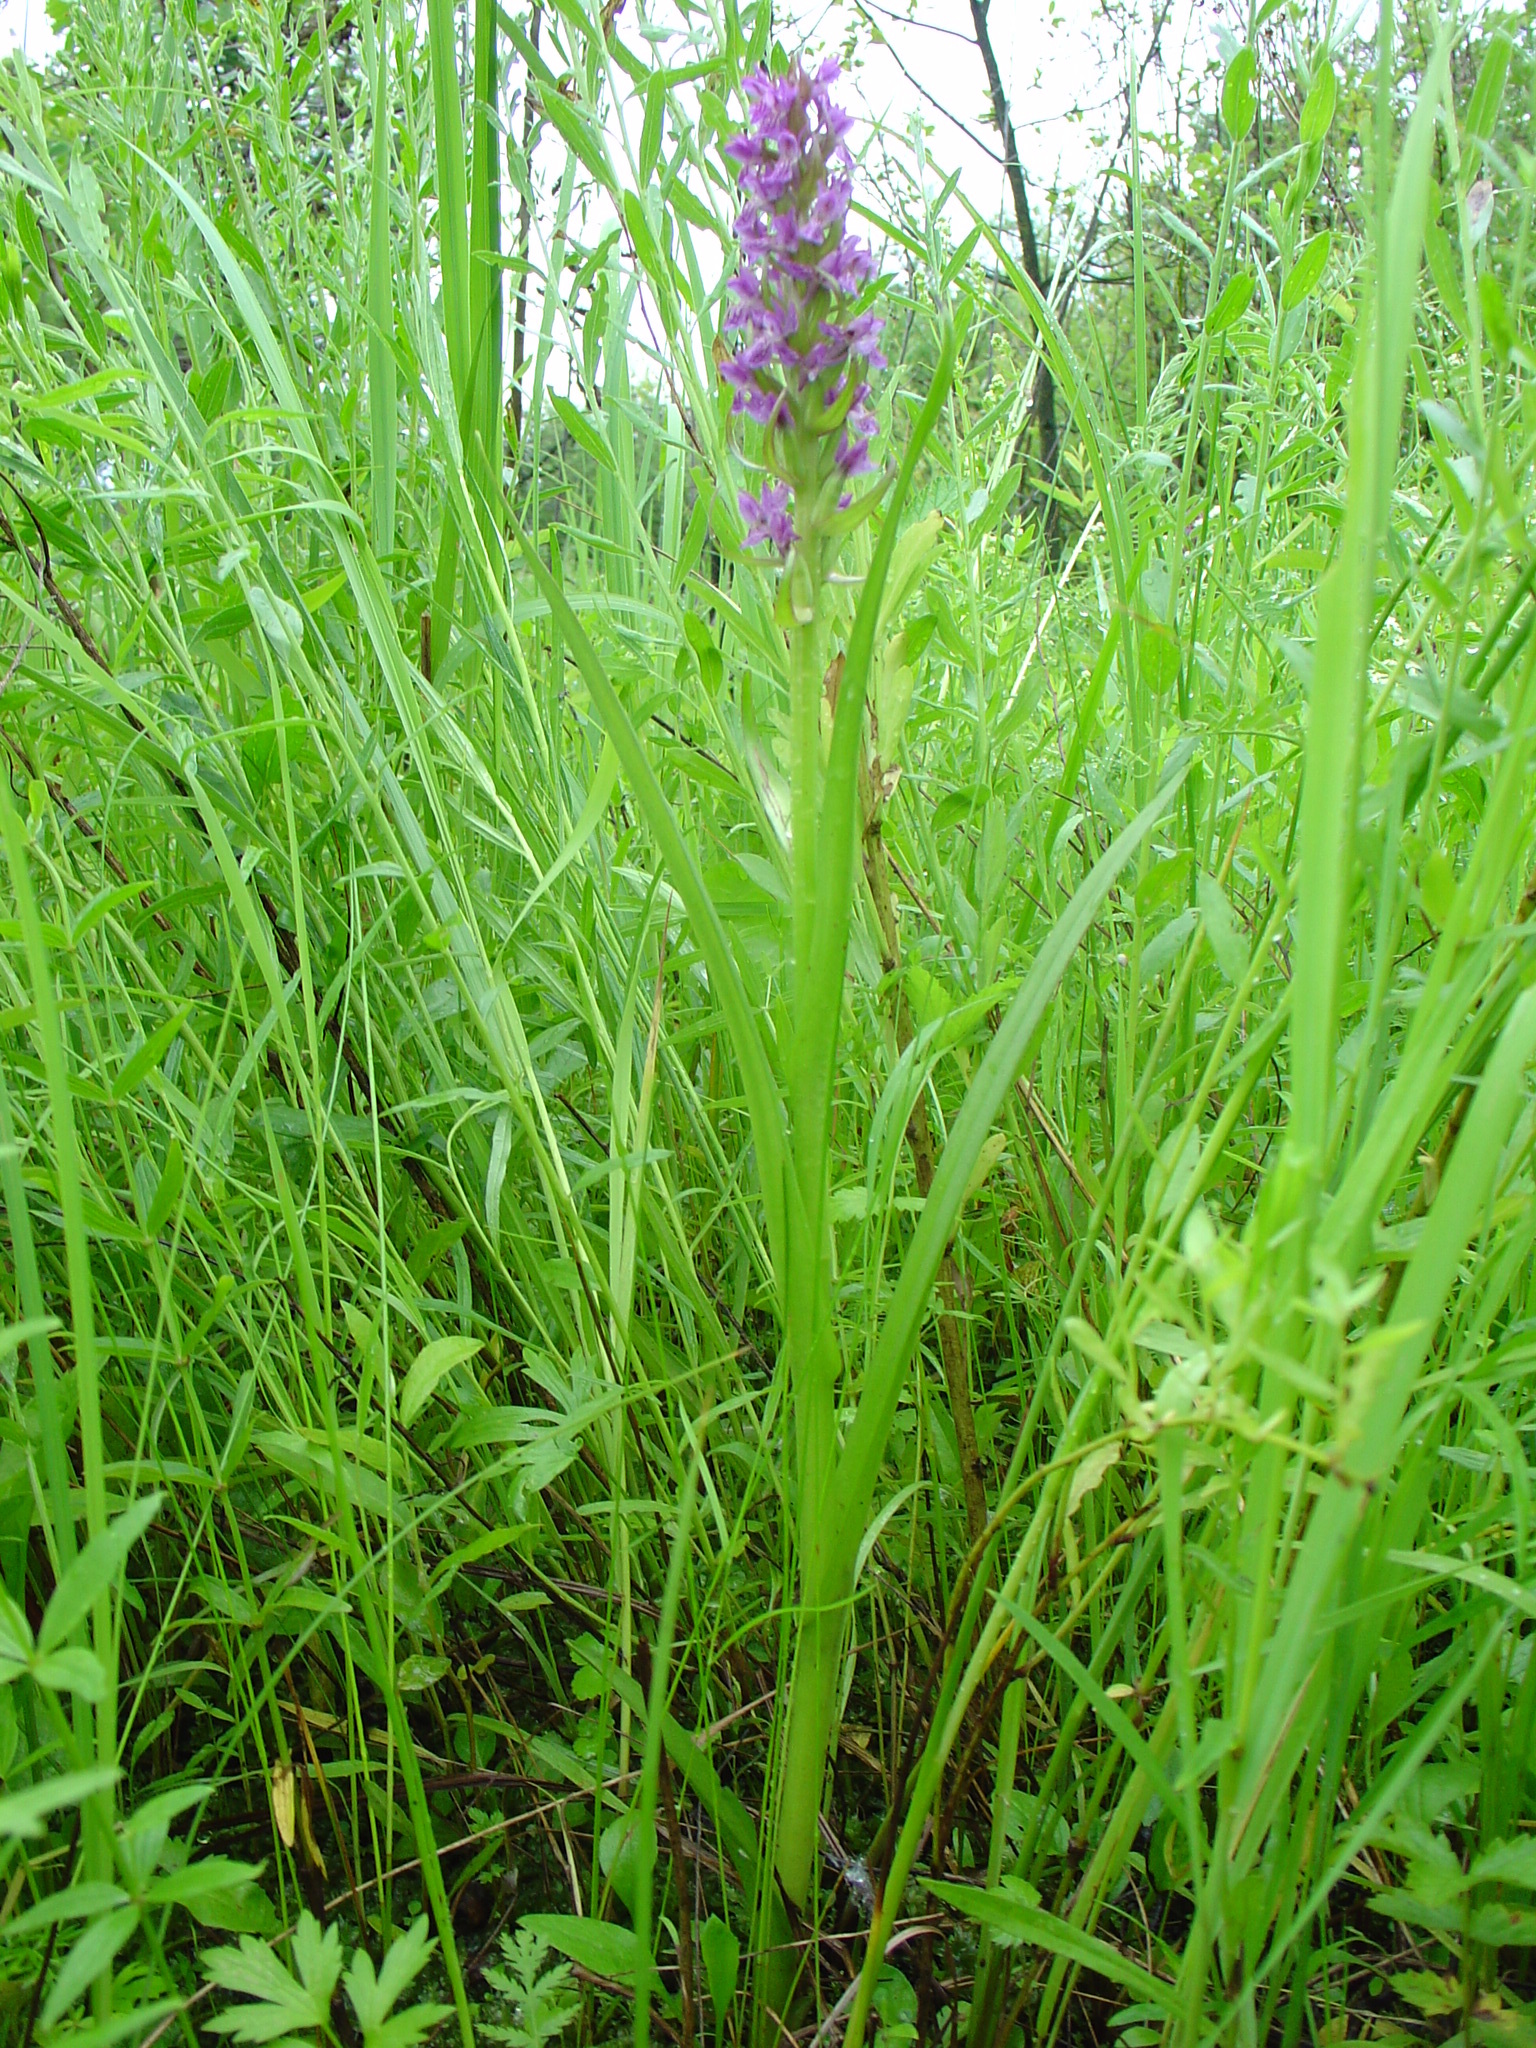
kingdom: Plantae
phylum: Tracheophyta
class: Liliopsida
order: Asparagales
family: Orchidaceae
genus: Dactylorhiza
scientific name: Dactylorhiza incarnata
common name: Early marsh-orchid
